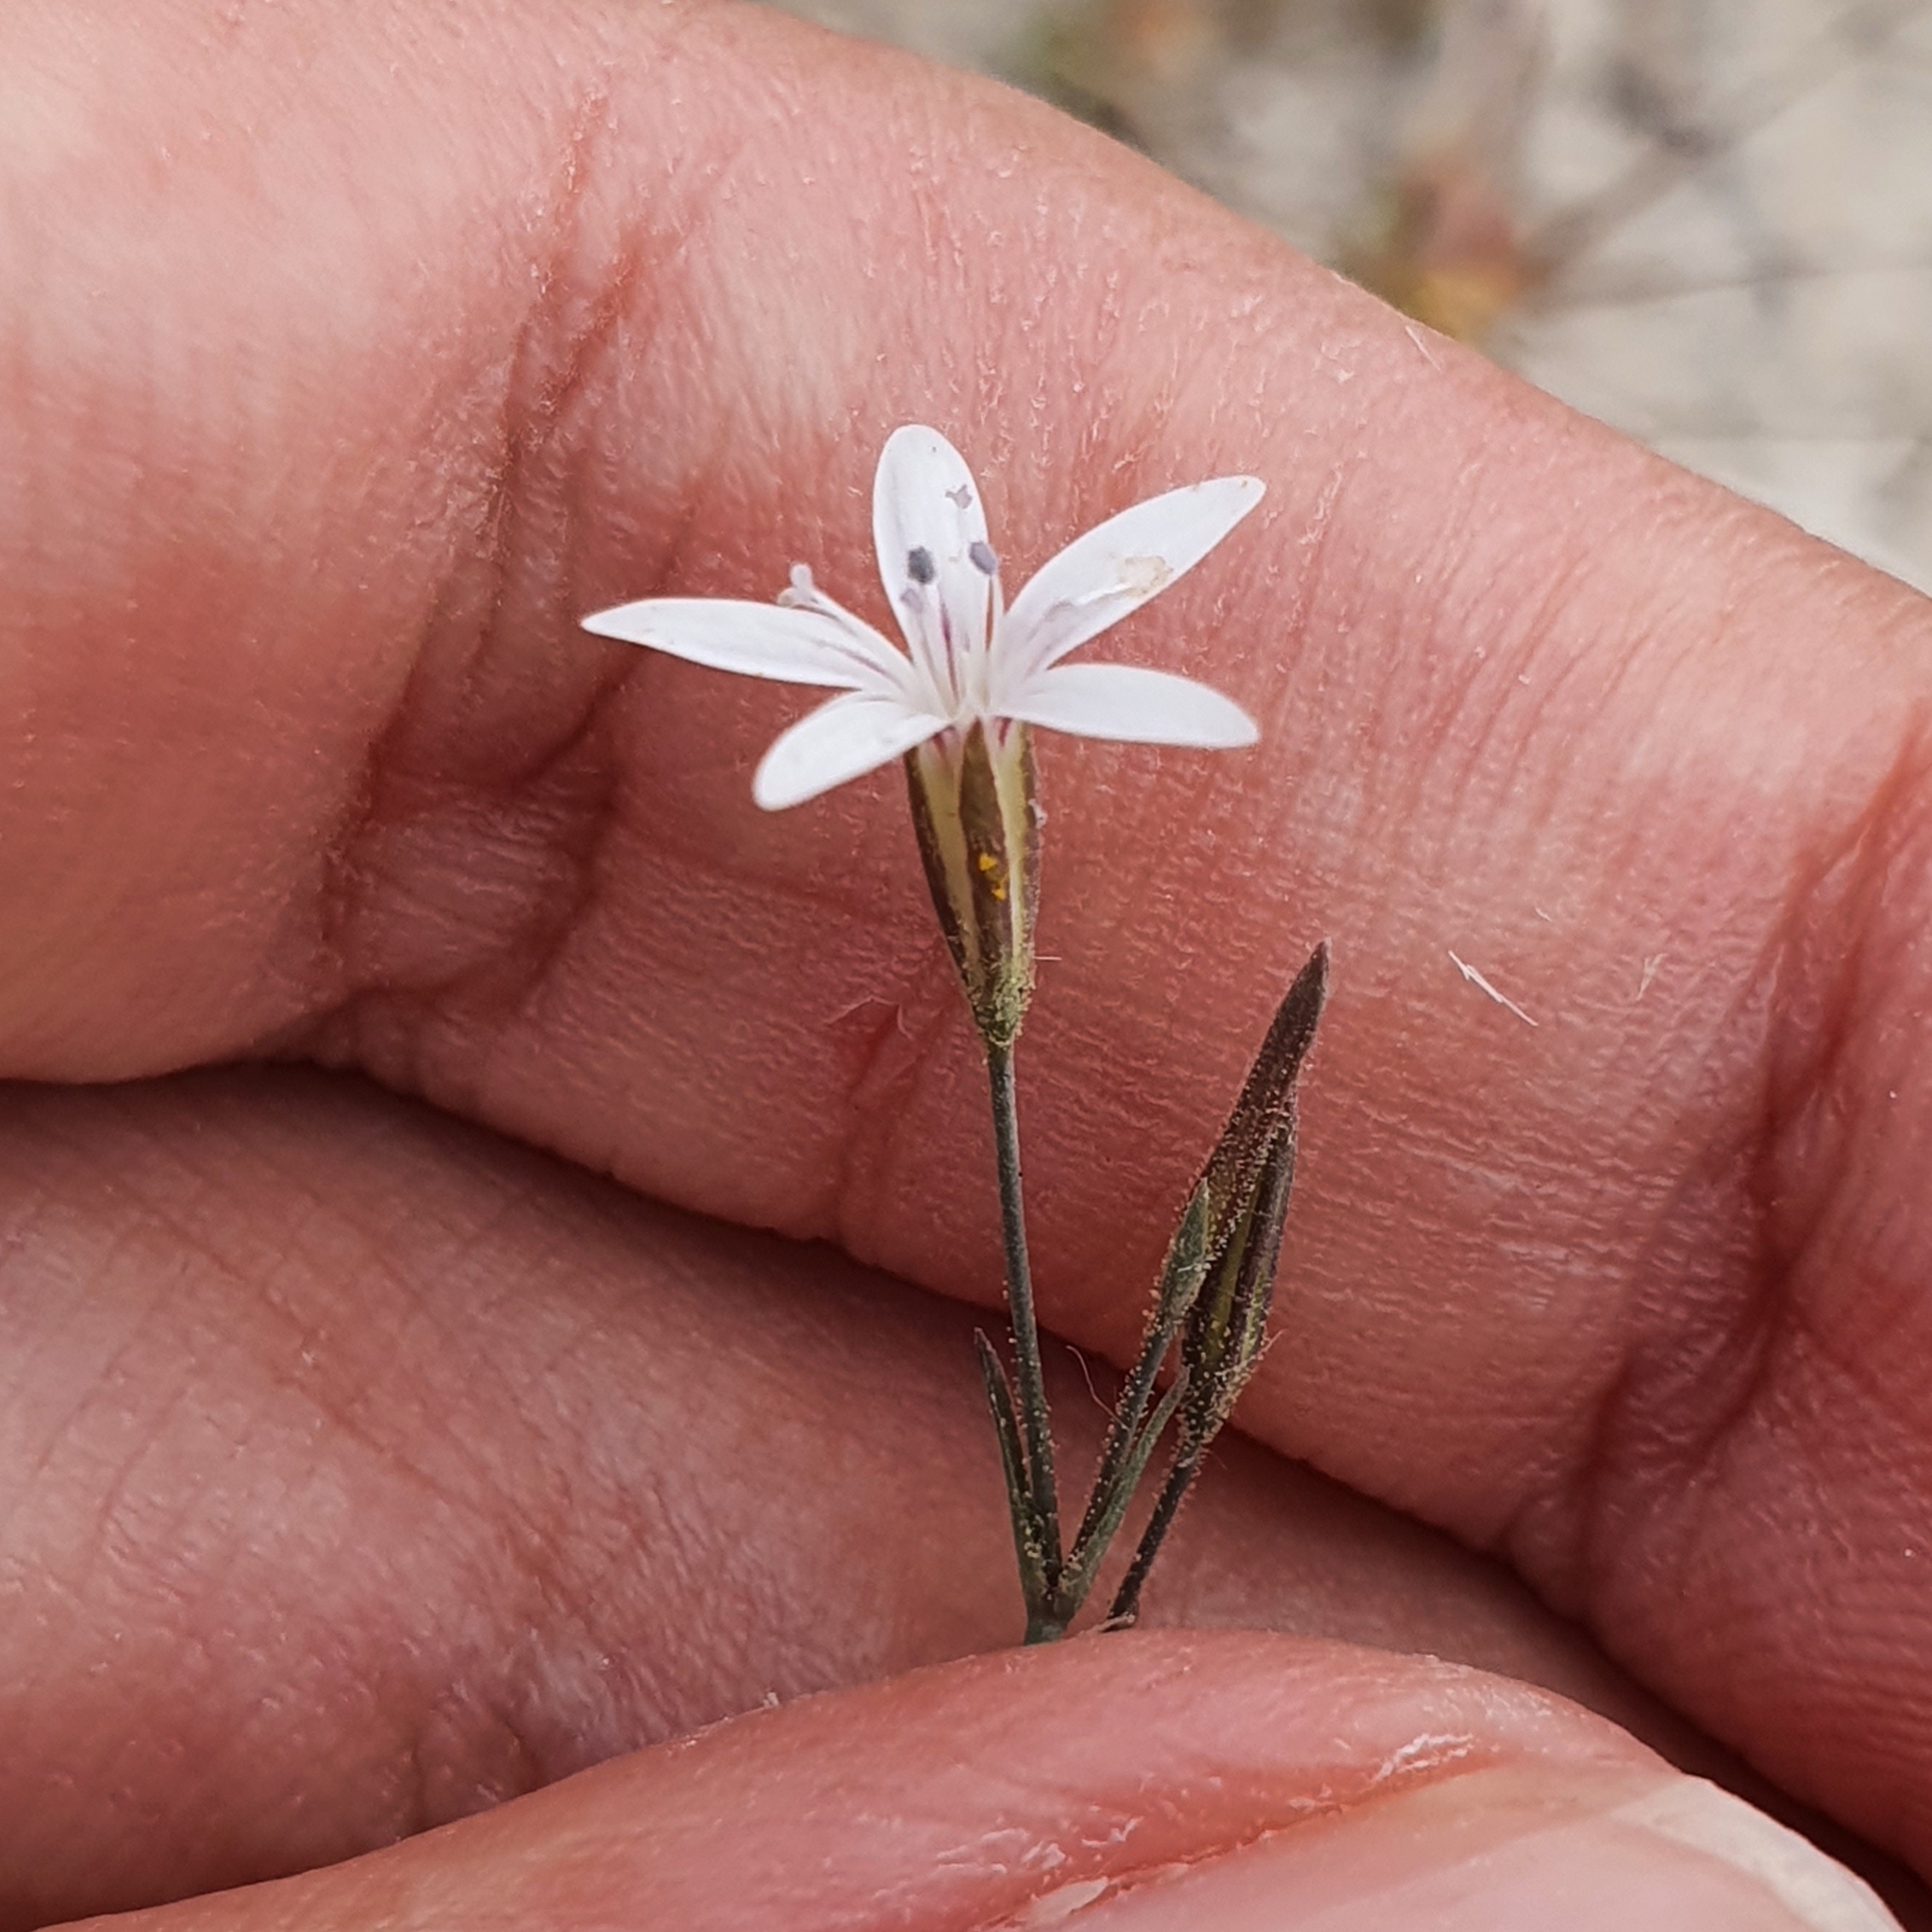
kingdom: Plantae
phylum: Tracheophyta
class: Magnoliopsida
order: Caryophyllales
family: Caryophyllaceae
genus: Dianthus
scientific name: Dianthus illyricus
